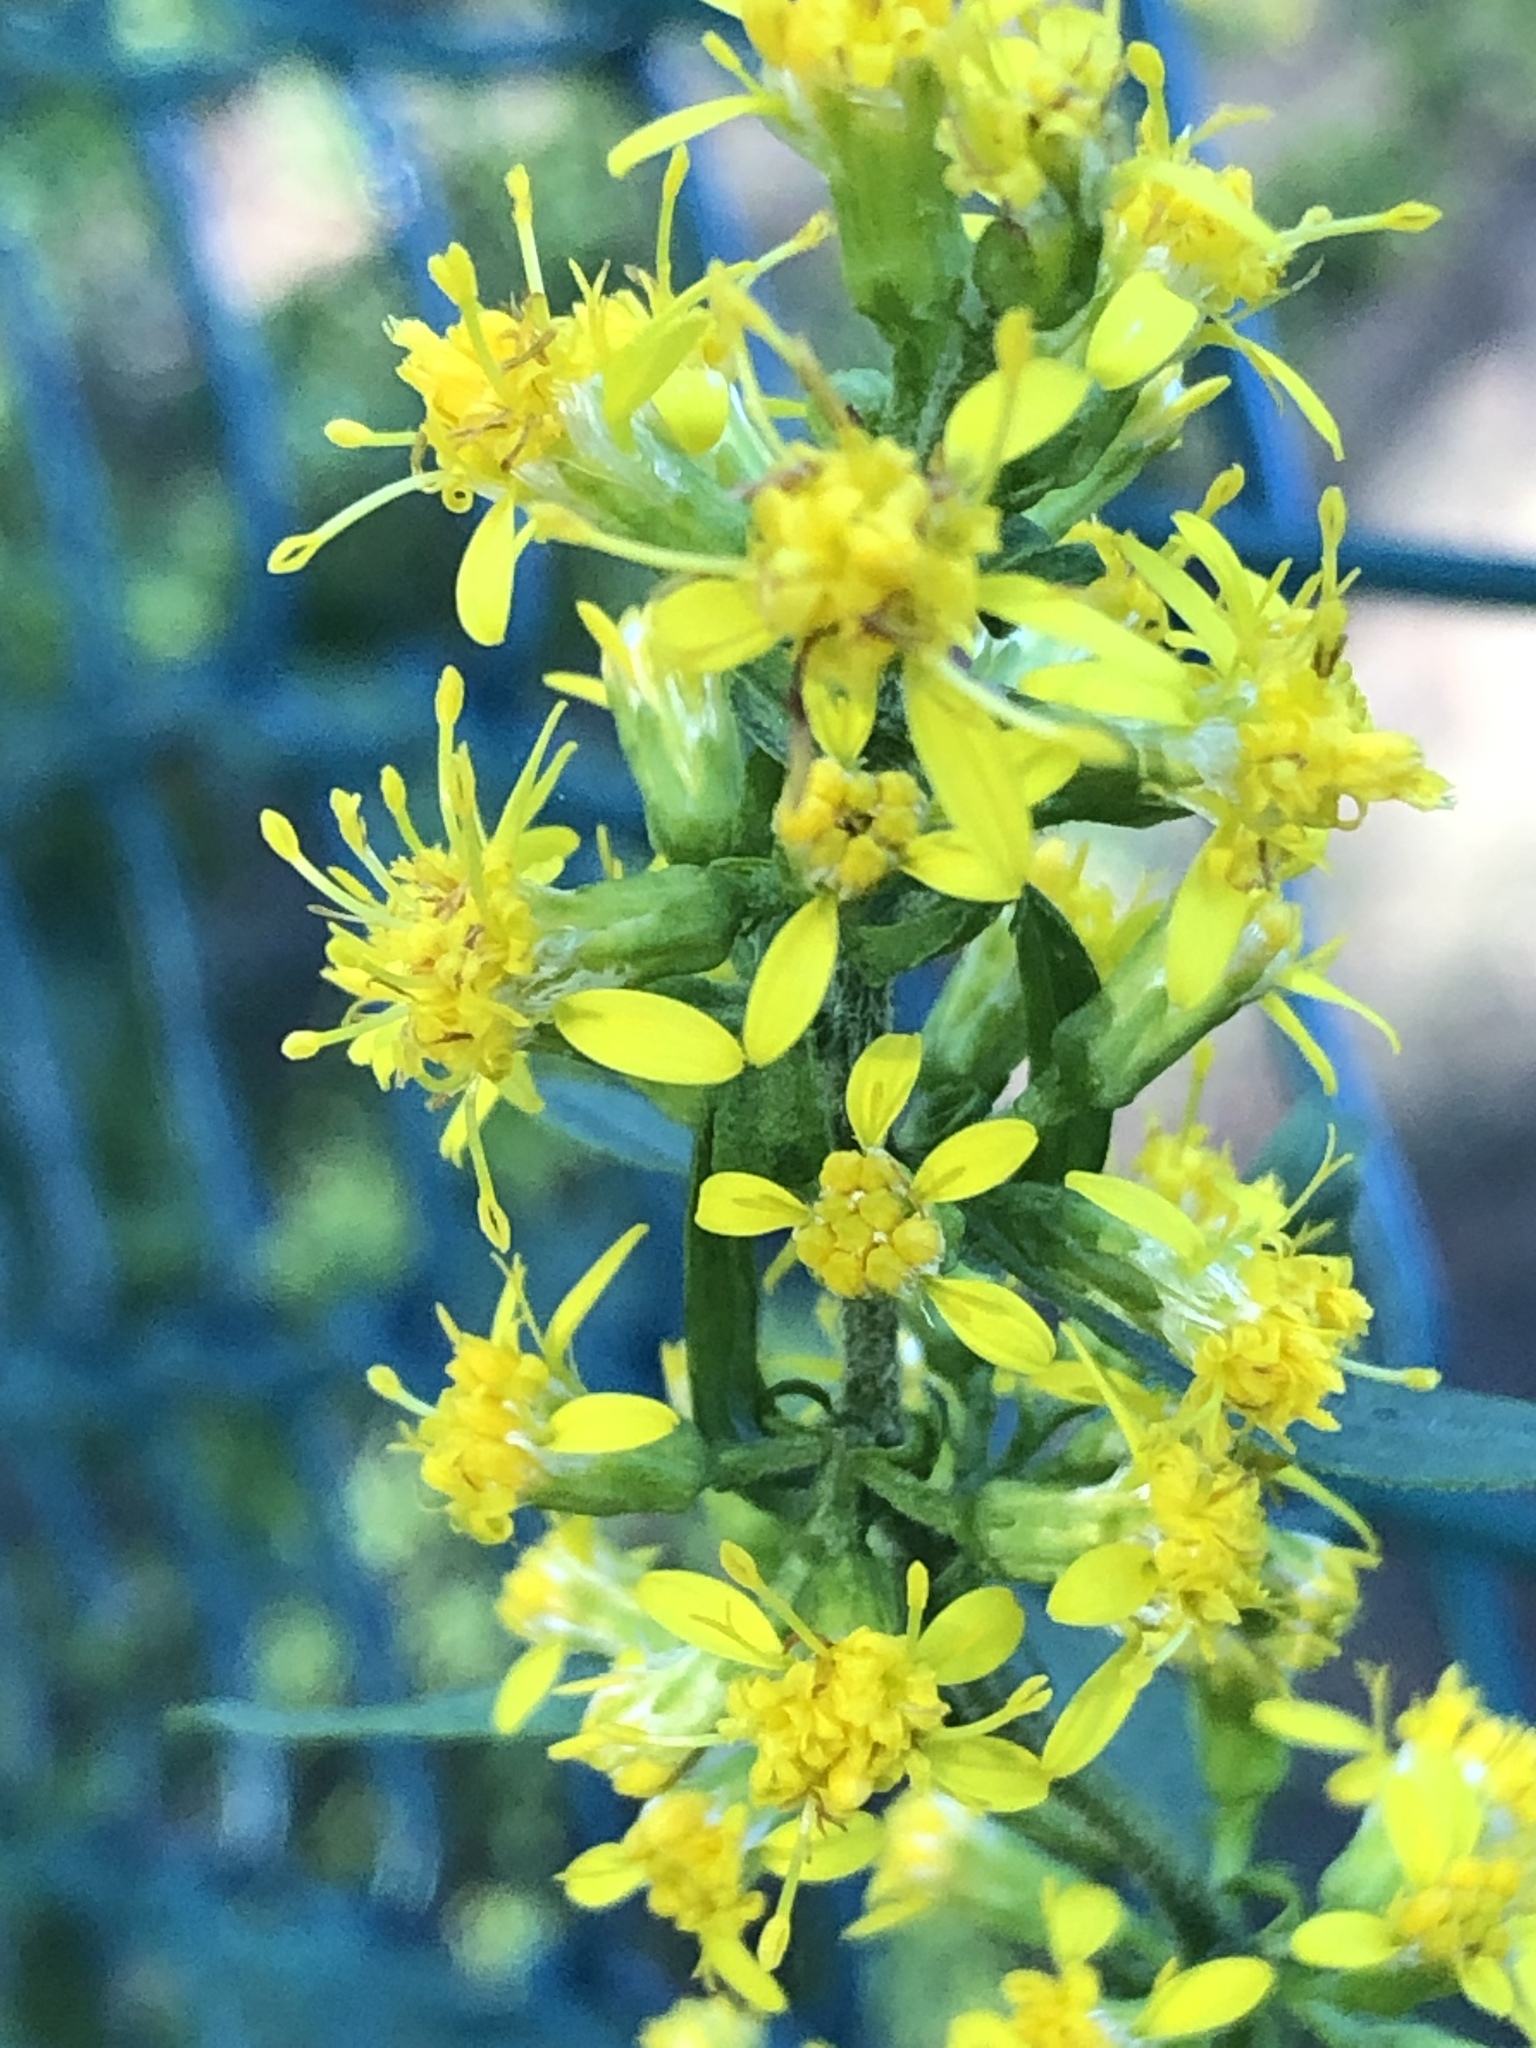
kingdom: Plantae
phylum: Tracheophyta
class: Magnoliopsida
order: Asterales
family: Asteraceae
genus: Solidago
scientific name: Solidago flexicaulis
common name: Zig-zag goldenrod
